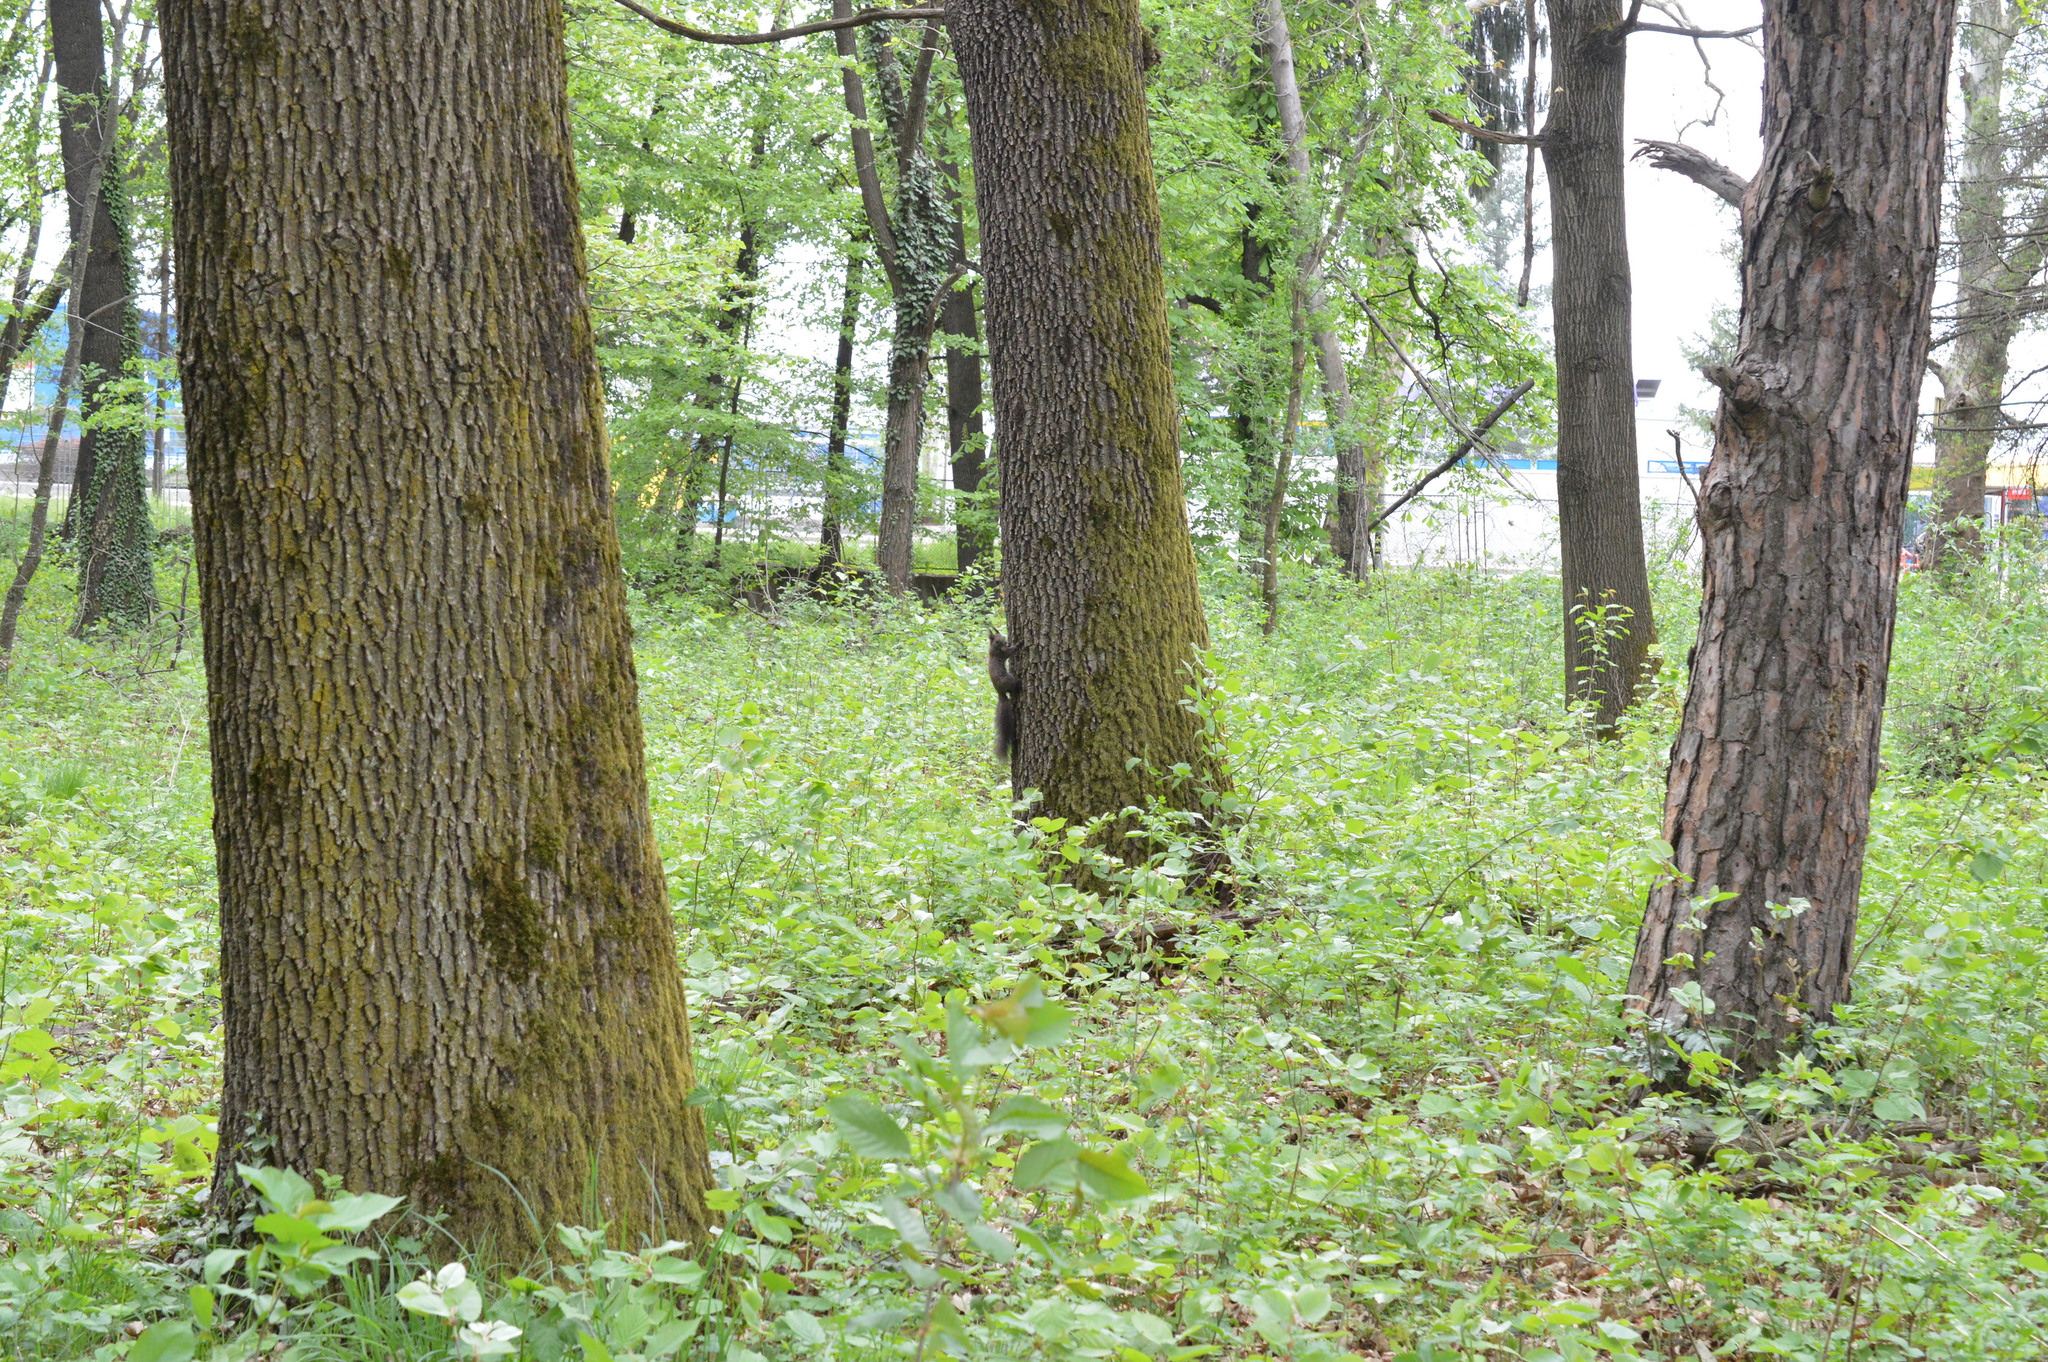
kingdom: Animalia
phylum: Chordata
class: Mammalia
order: Rodentia
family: Sciuridae
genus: Sciurus
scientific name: Sciurus vulgaris
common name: Eurasian red squirrel
